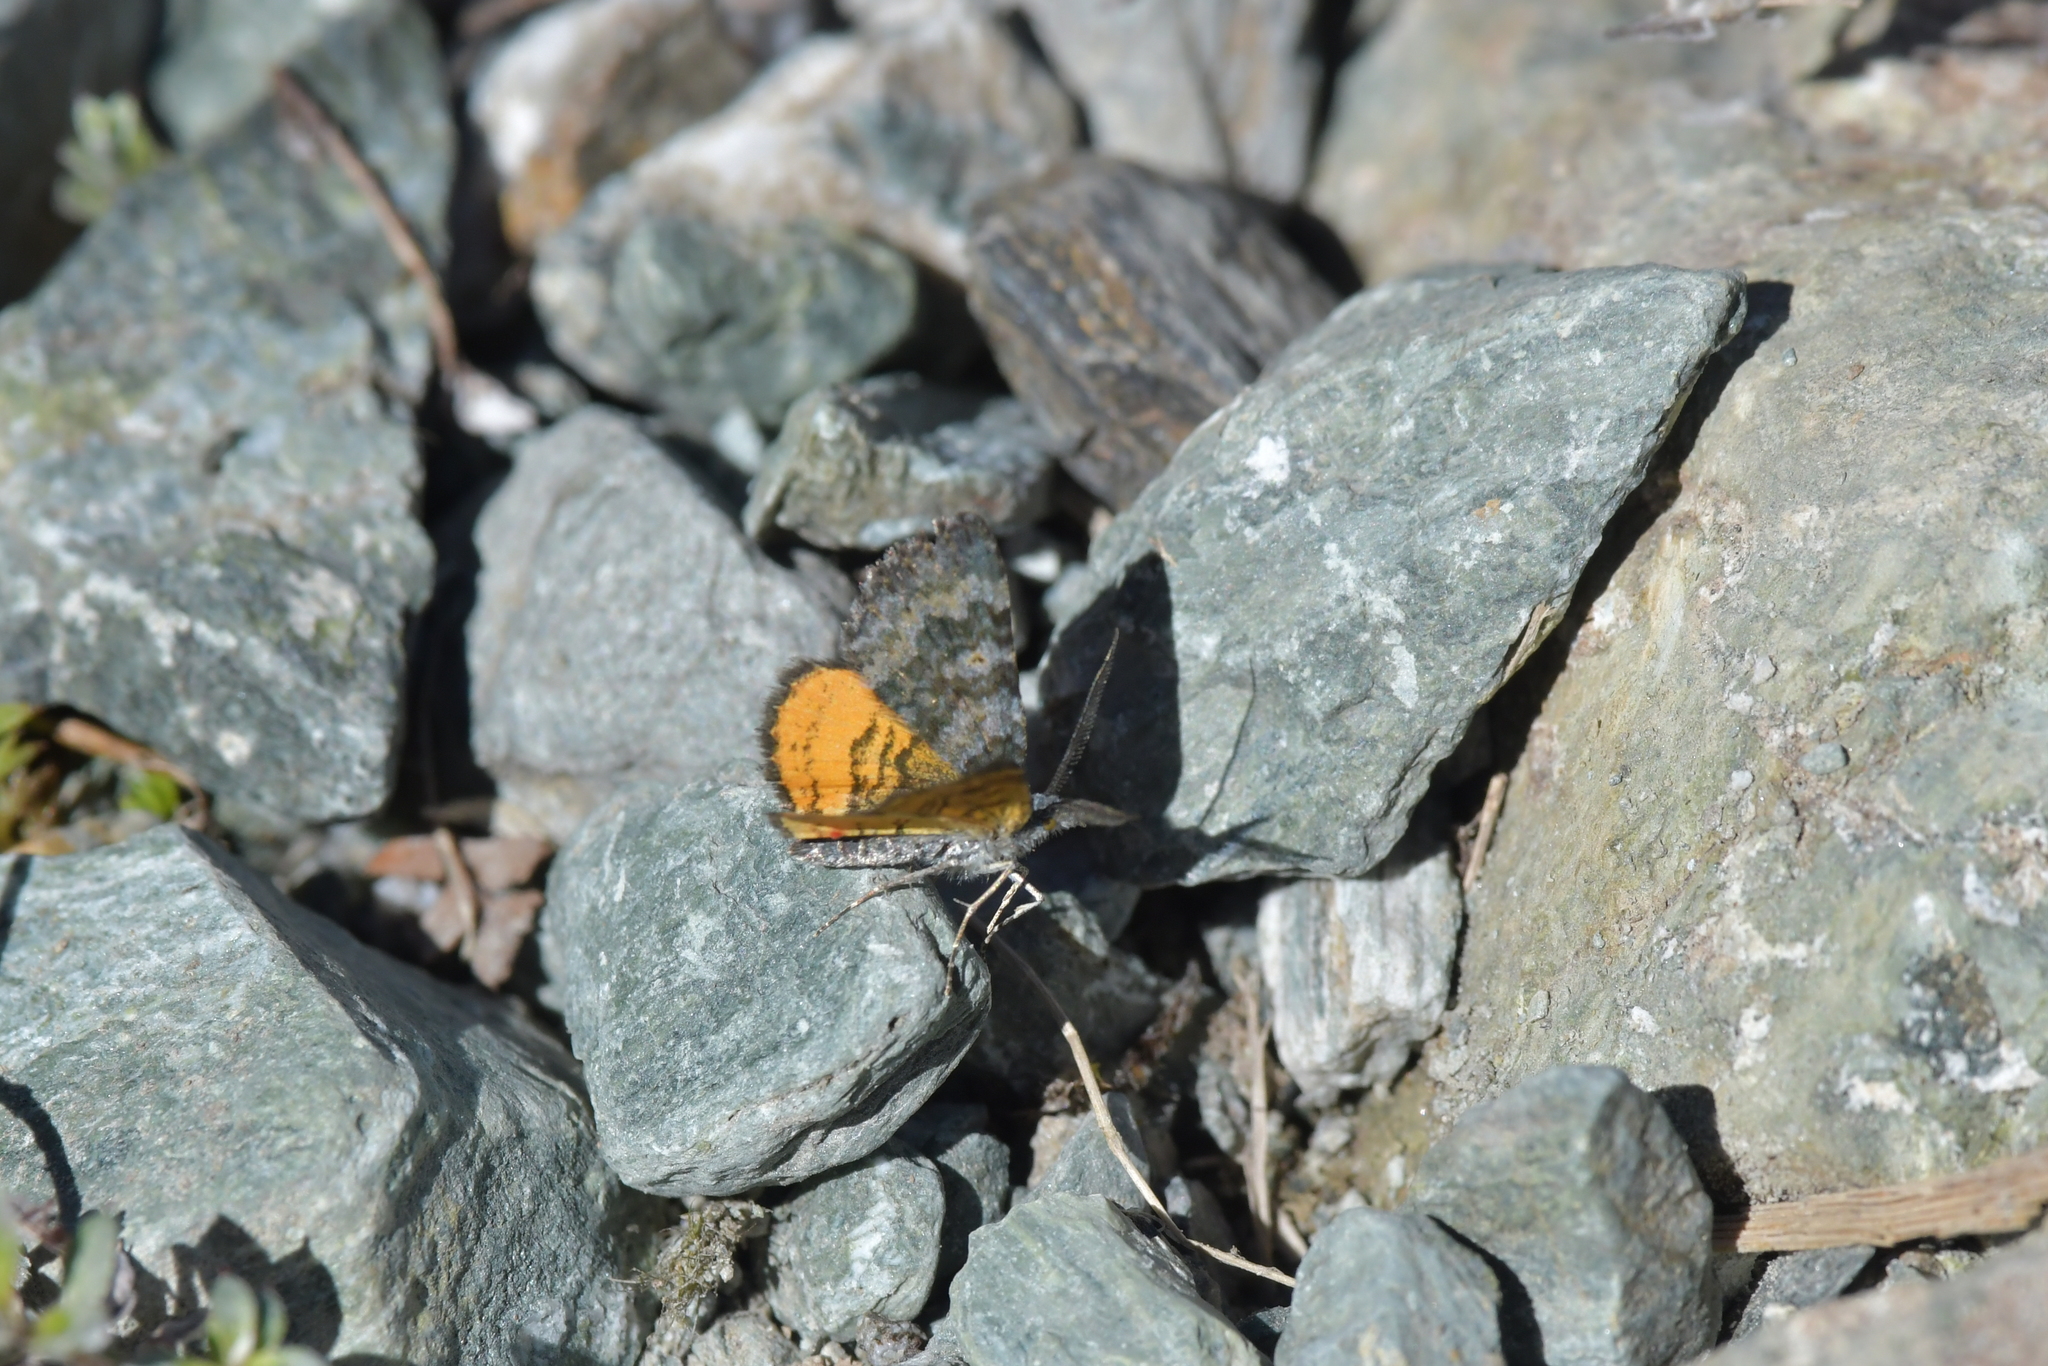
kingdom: Animalia
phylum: Arthropoda
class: Insecta
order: Lepidoptera
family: Geometridae
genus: Paranotoreas
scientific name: Paranotoreas zopyra
